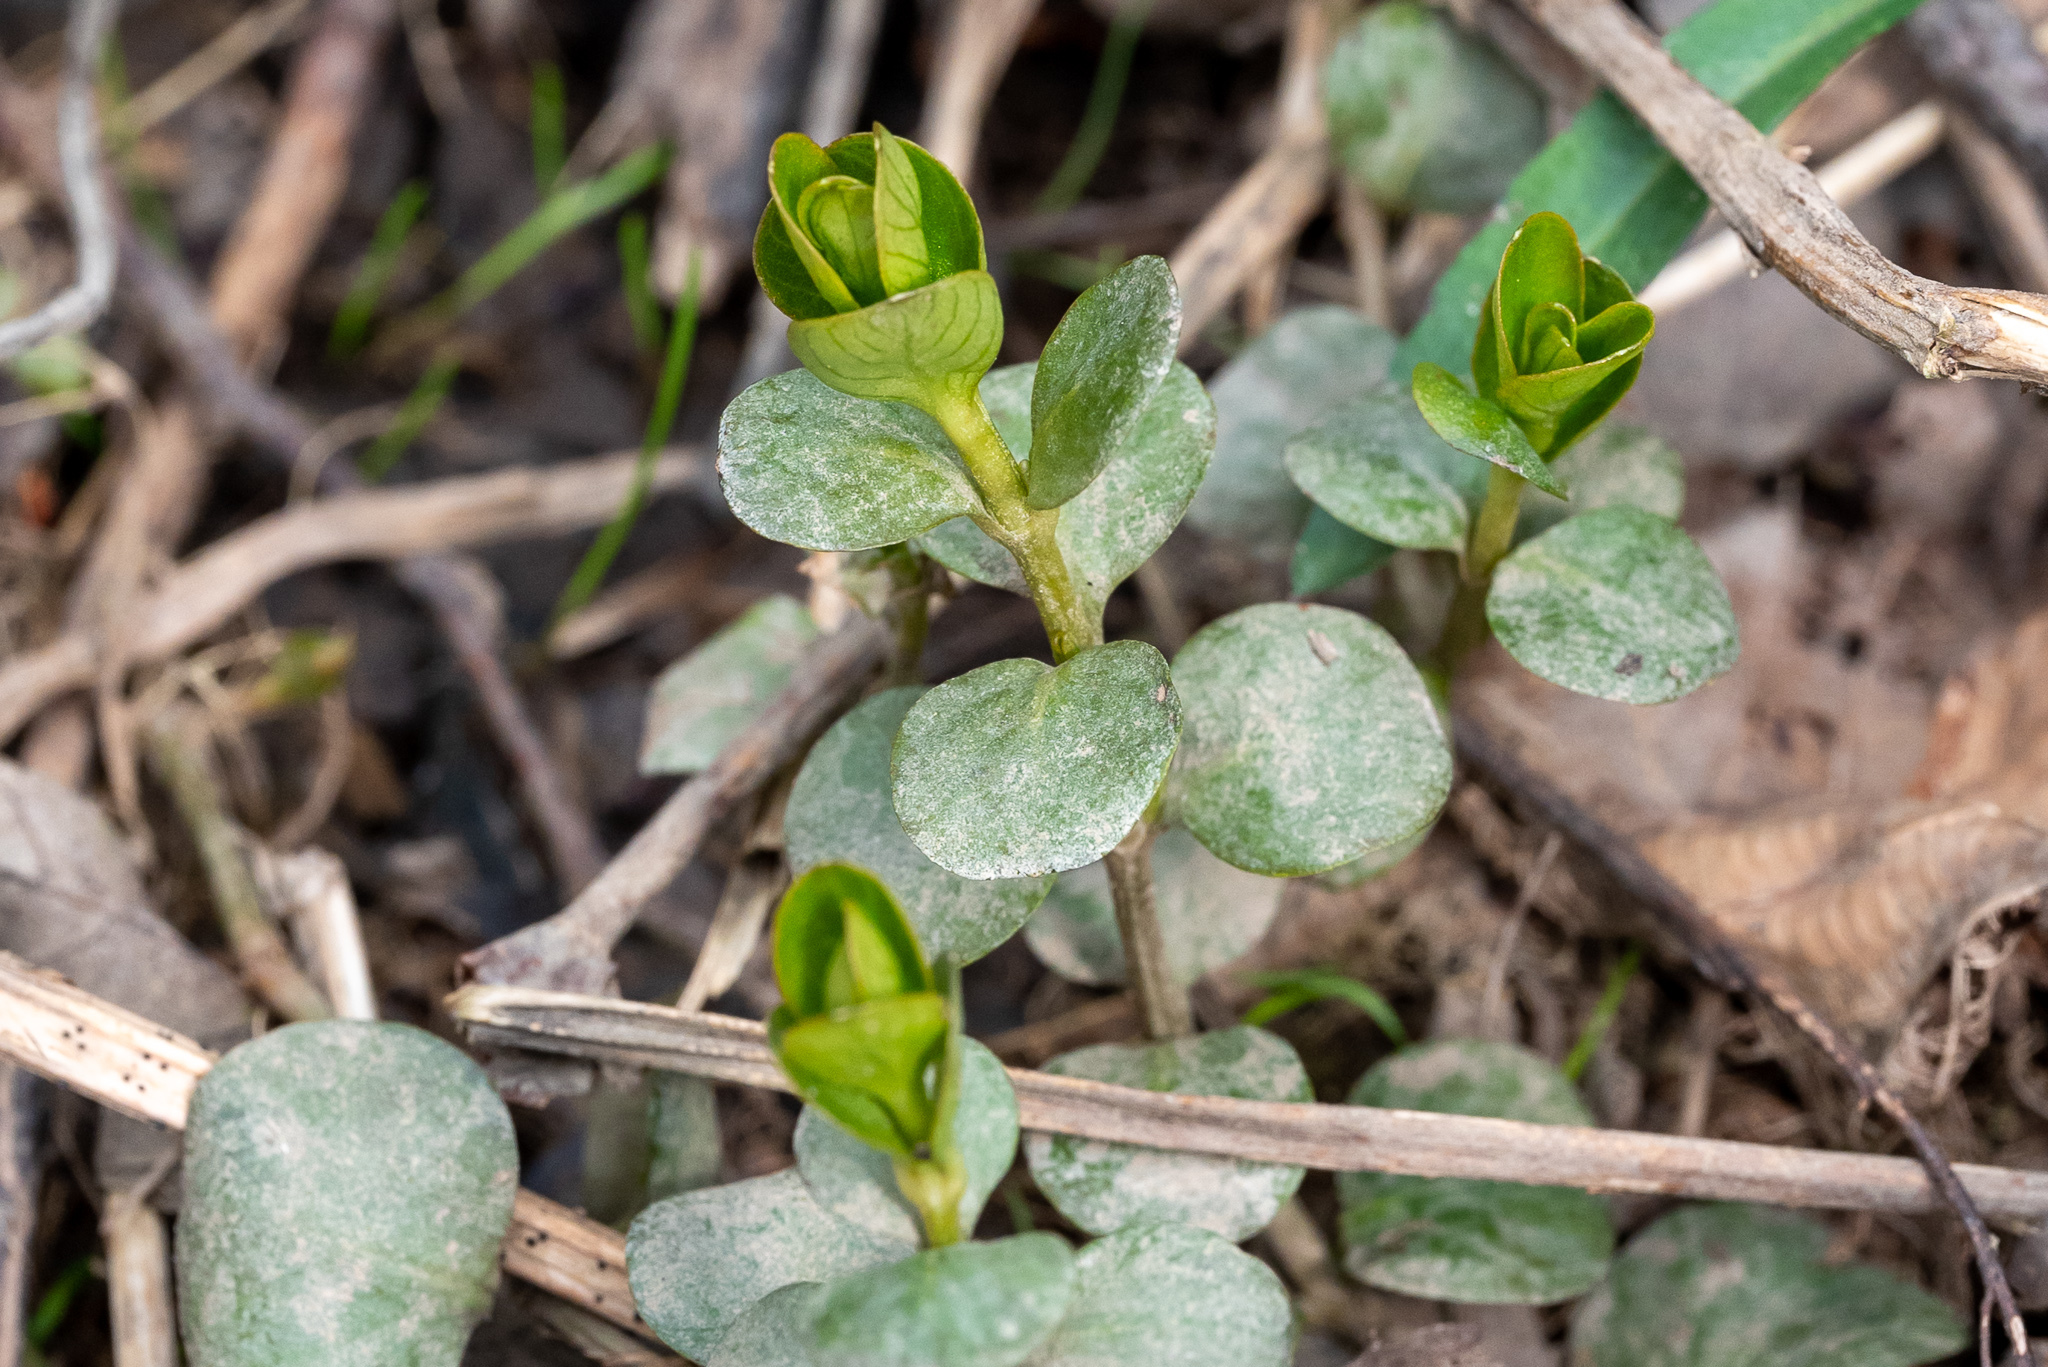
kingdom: Plantae
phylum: Tracheophyta
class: Magnoliopsida
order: Ericales
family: Primulaceae
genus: Lysimachia
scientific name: Lysimachia nummularia
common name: Moneywort
